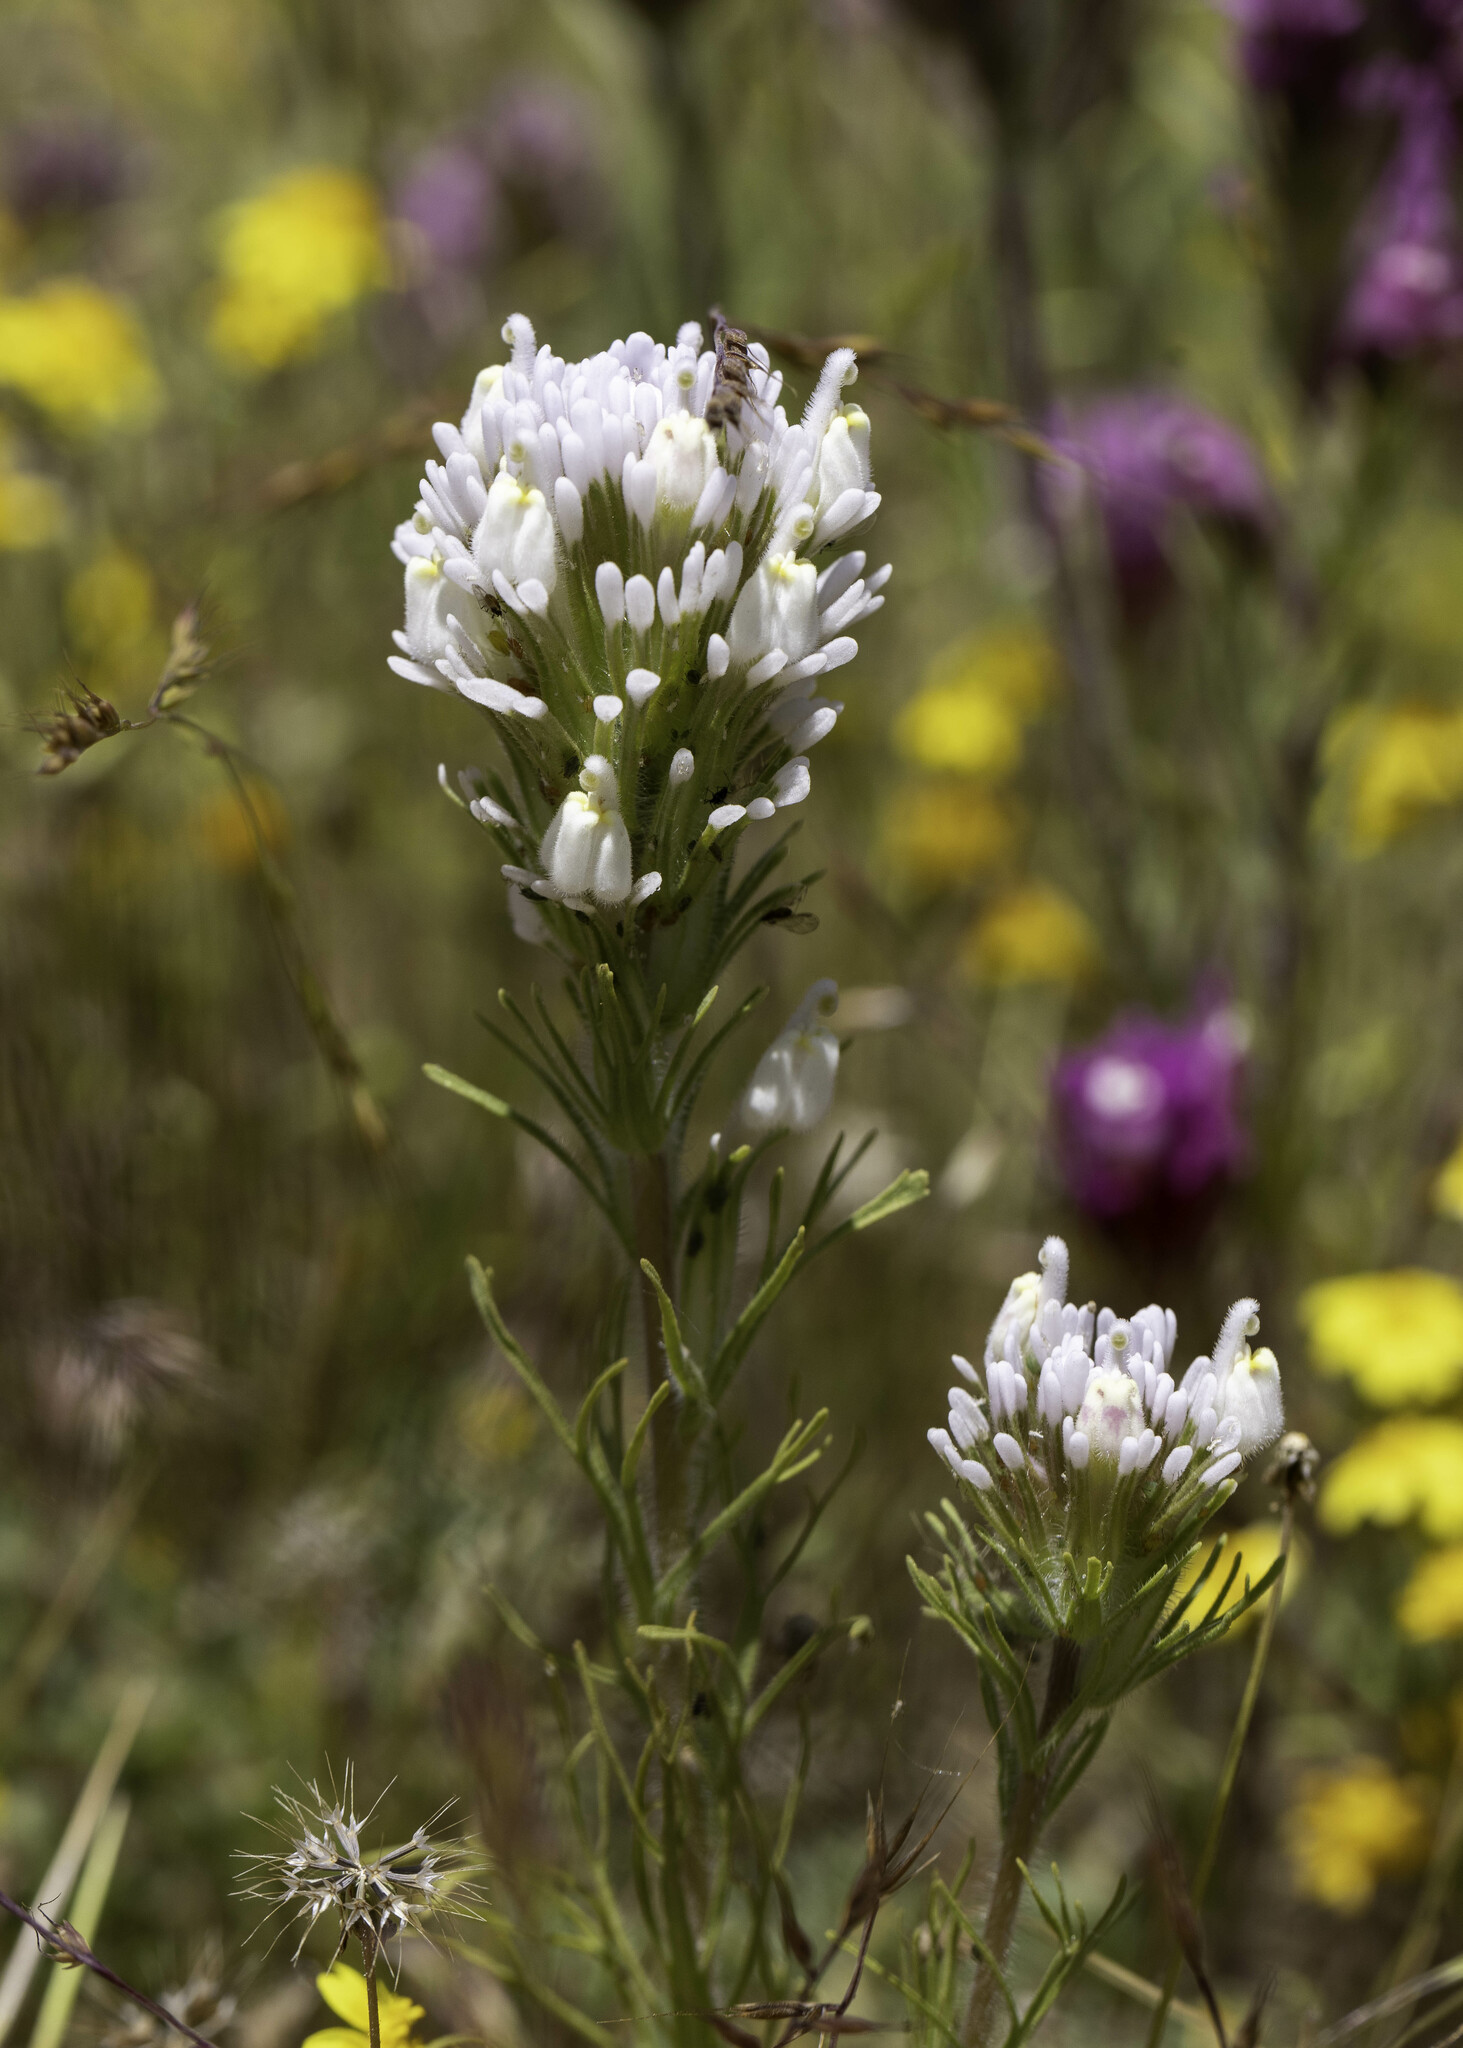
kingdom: Plantae
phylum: Tracheophyta
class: Magnoliopsida
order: Lamiales
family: Orobanchaceae
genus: Castilleja
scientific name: Castilleja exserta
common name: Purple owl-clover
